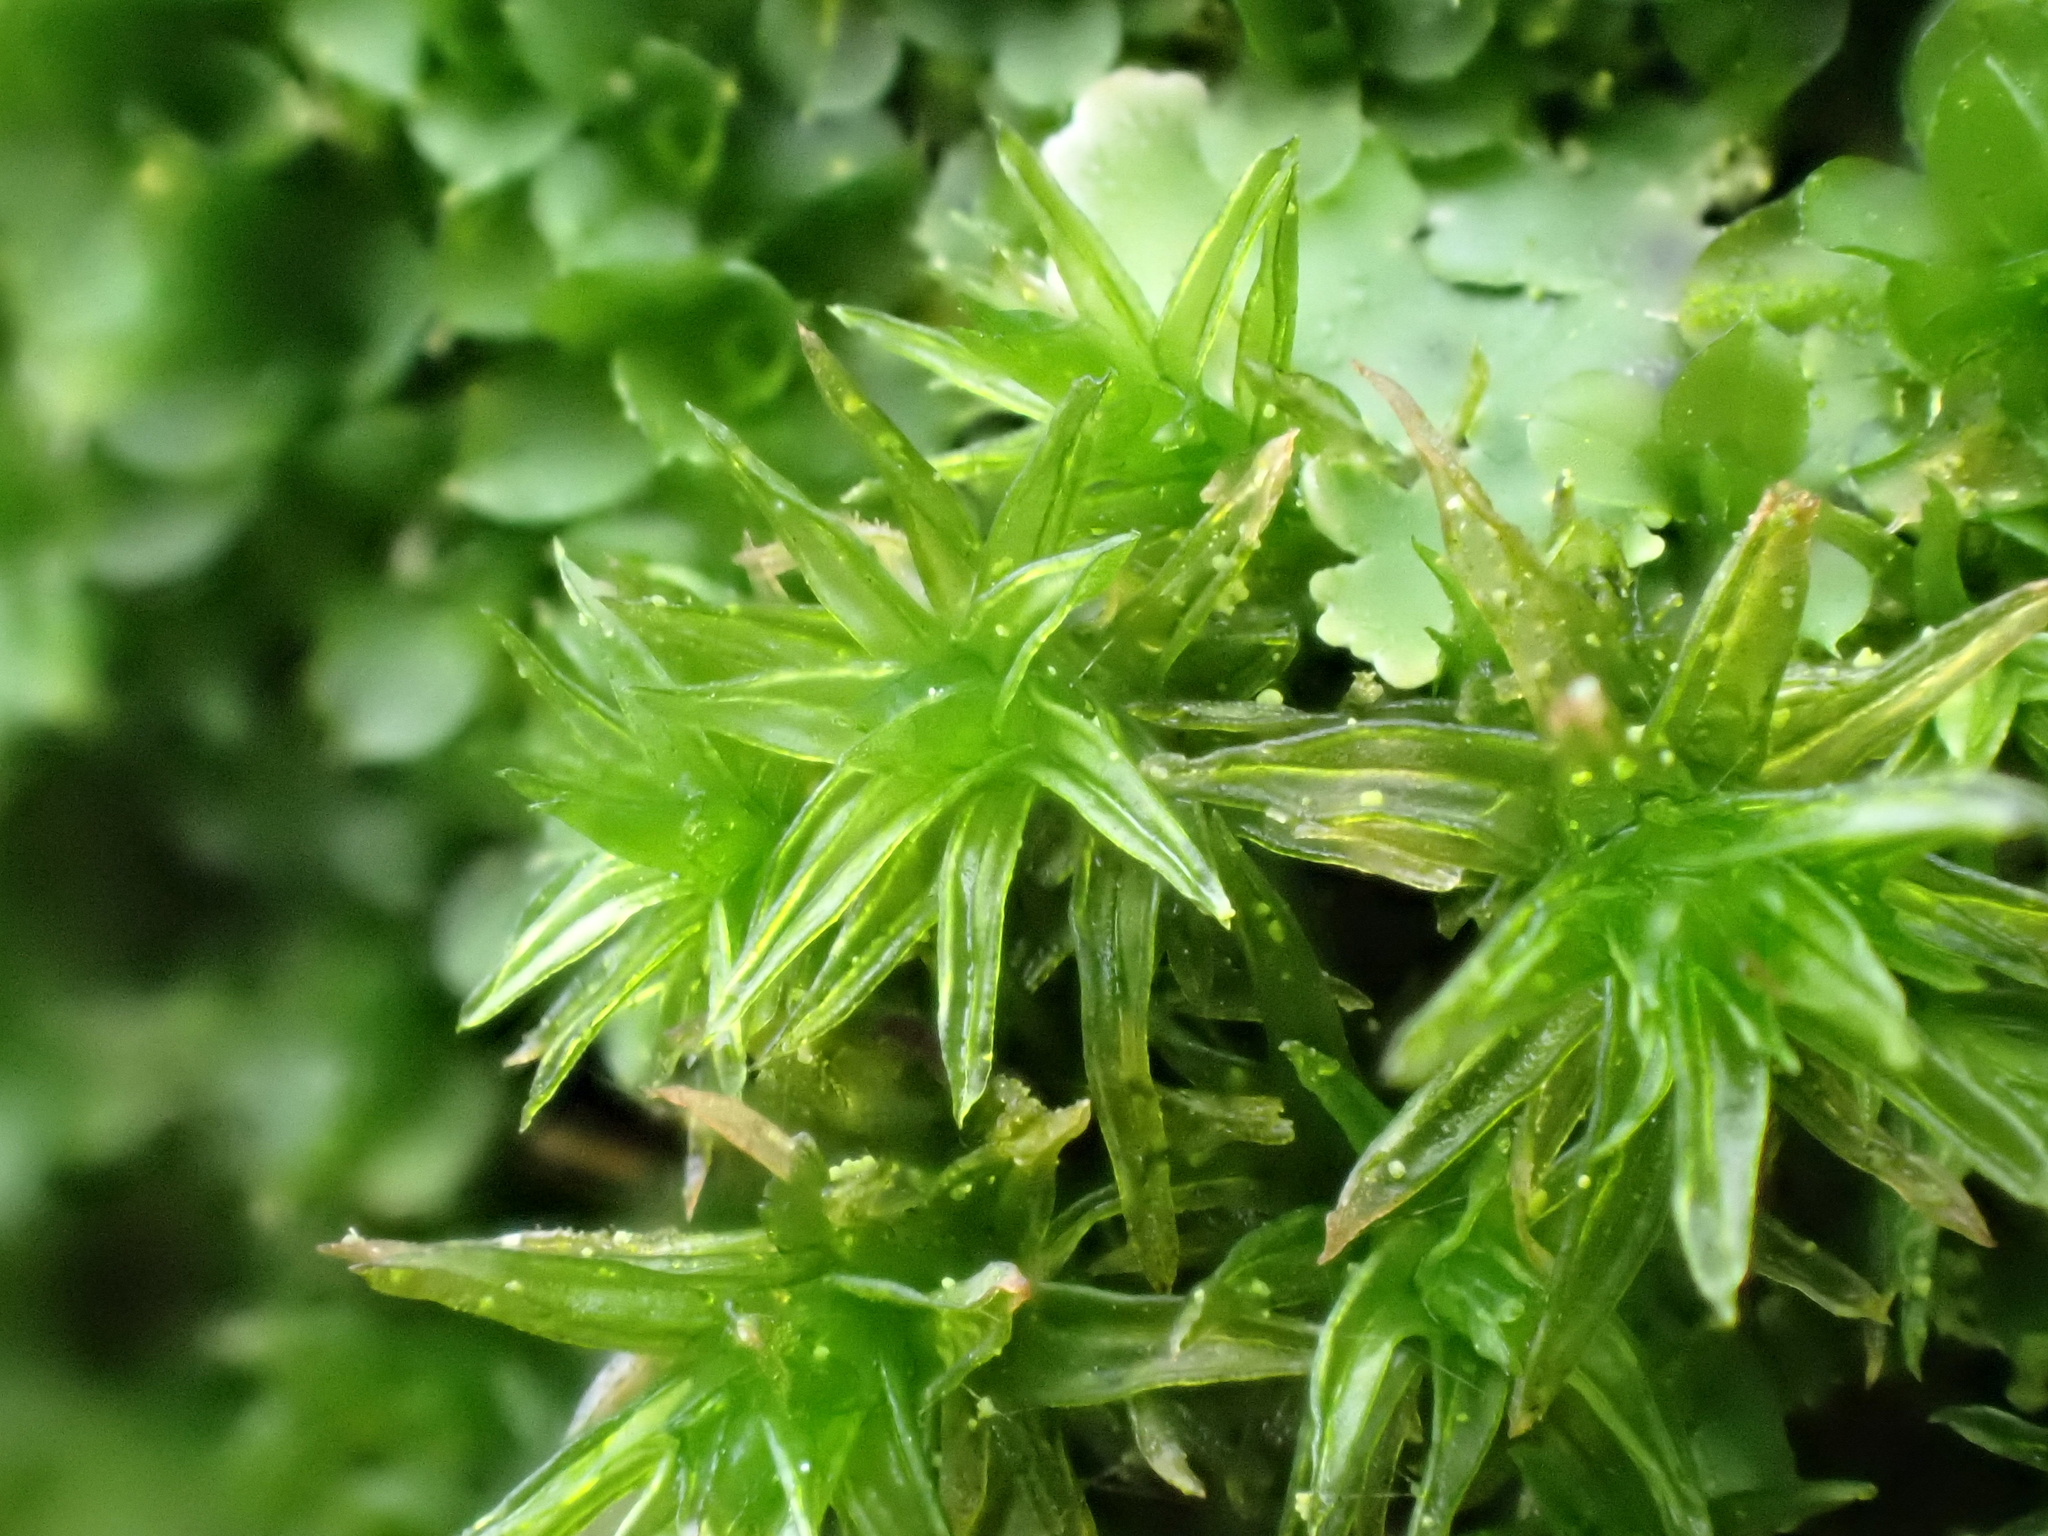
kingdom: Plantae
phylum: Bryophyta
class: Bryopsida
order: Orthotrichales
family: Orthotrichaceae
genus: Lewinskya
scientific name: Lewinskya affinis
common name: Wood bristle-moss
